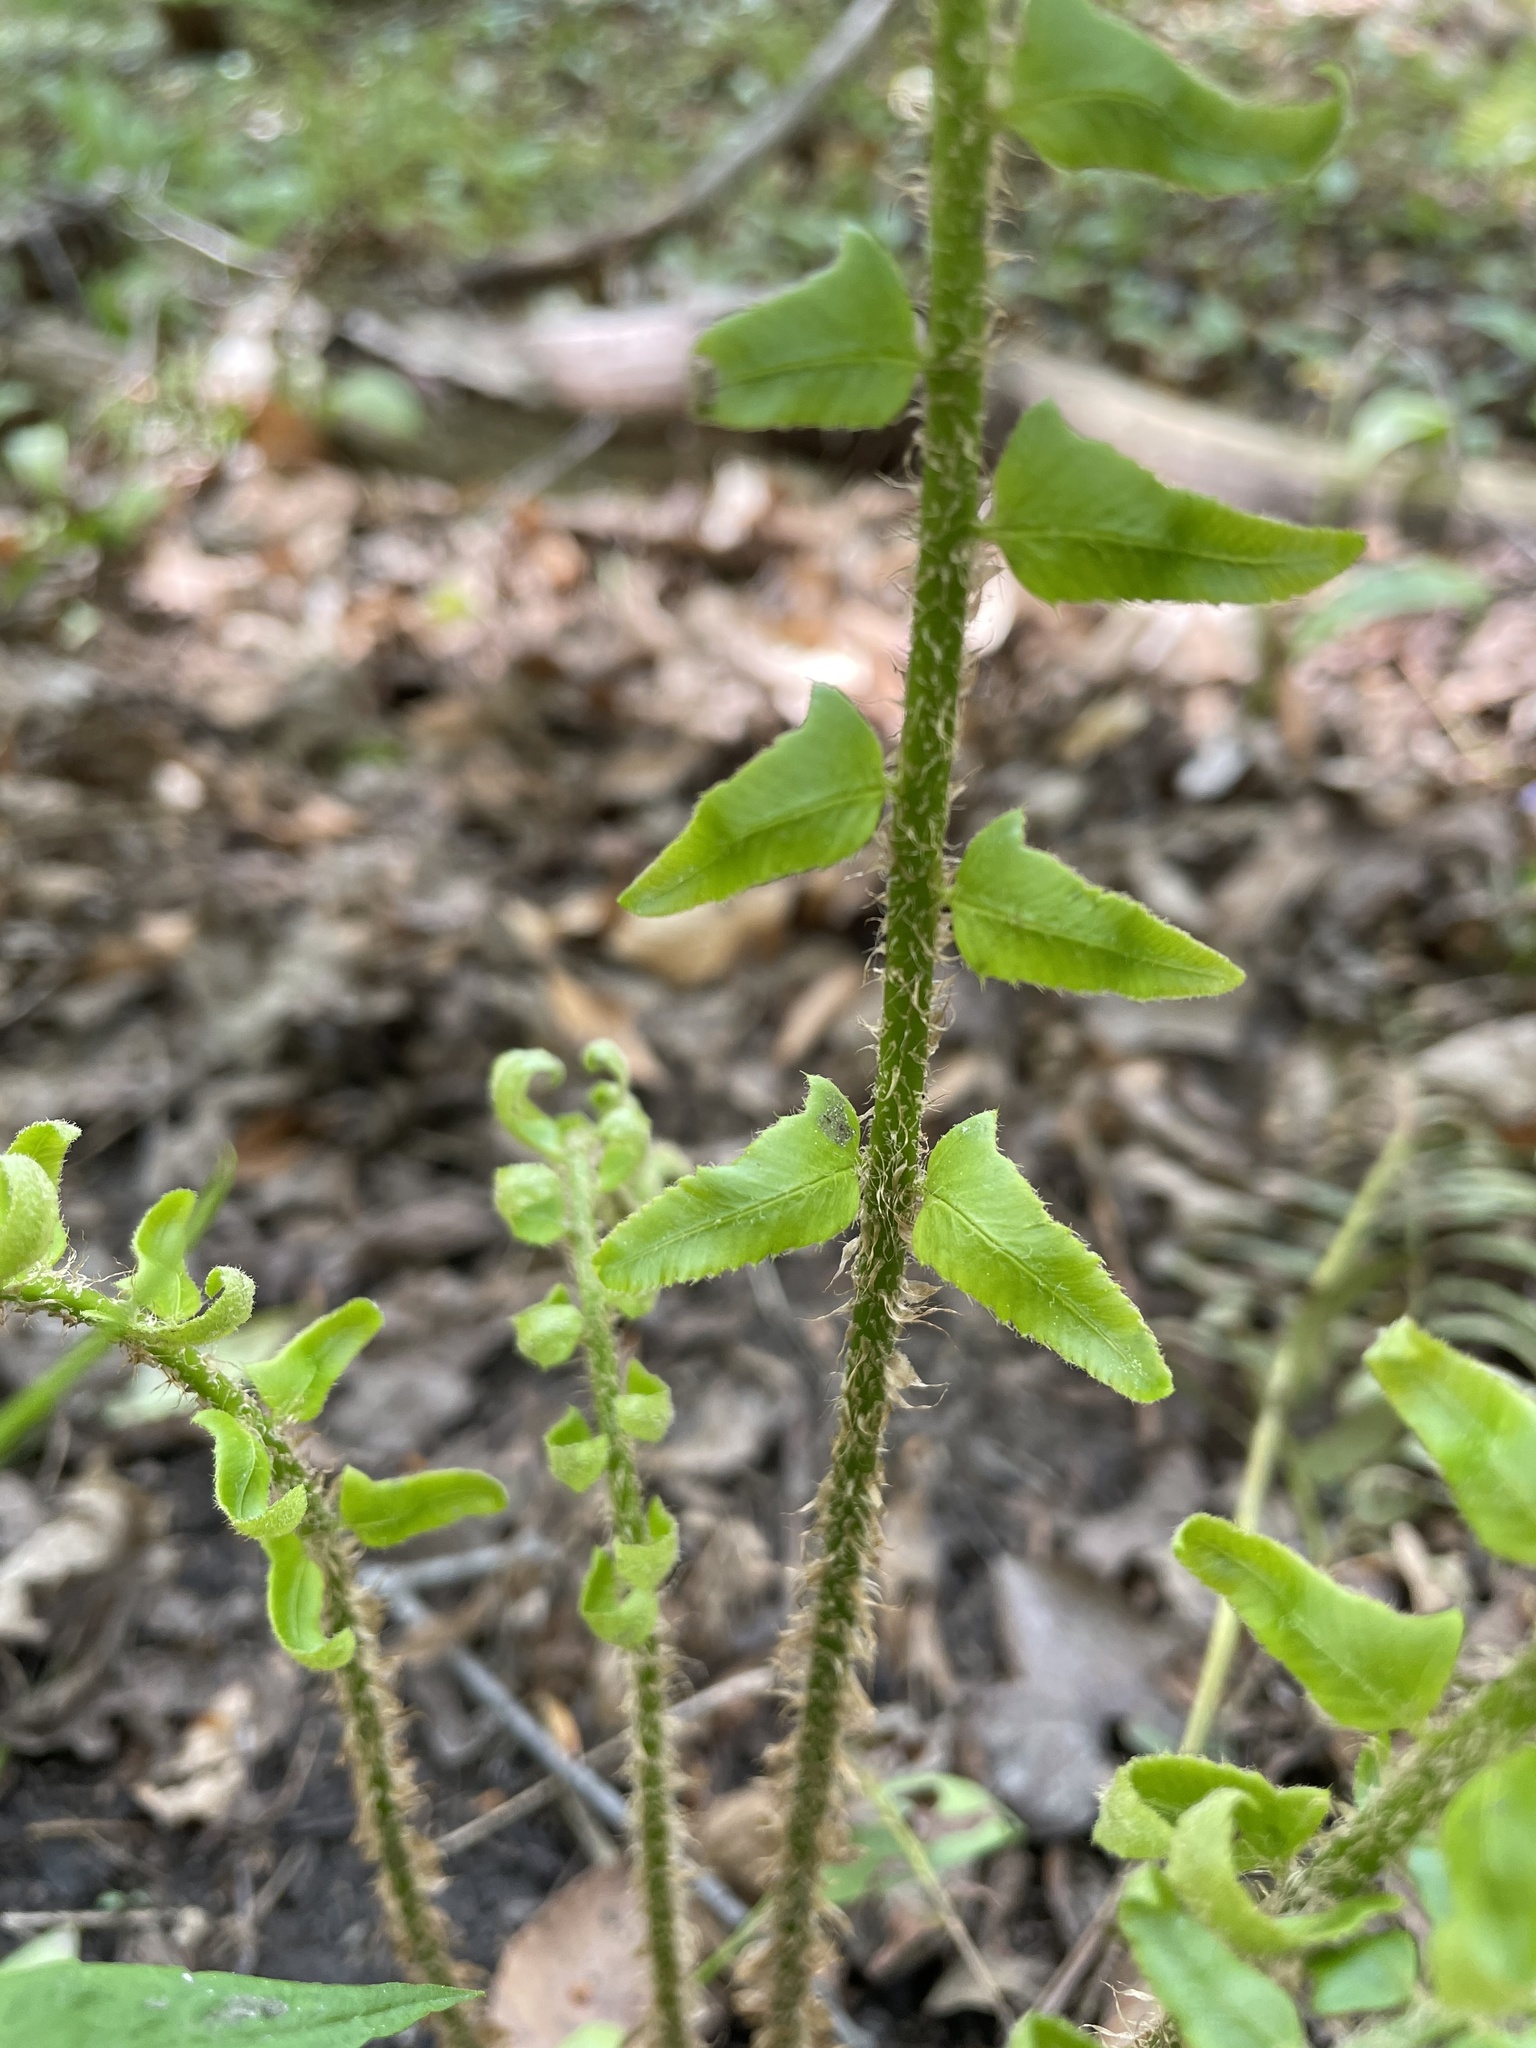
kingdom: Plantae
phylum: Tracheophyta
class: Polypodiopsida
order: Polypodiales
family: Dryopteridaceae
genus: Polystichum
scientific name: Polystichum acrostichoides
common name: Christmas fern
